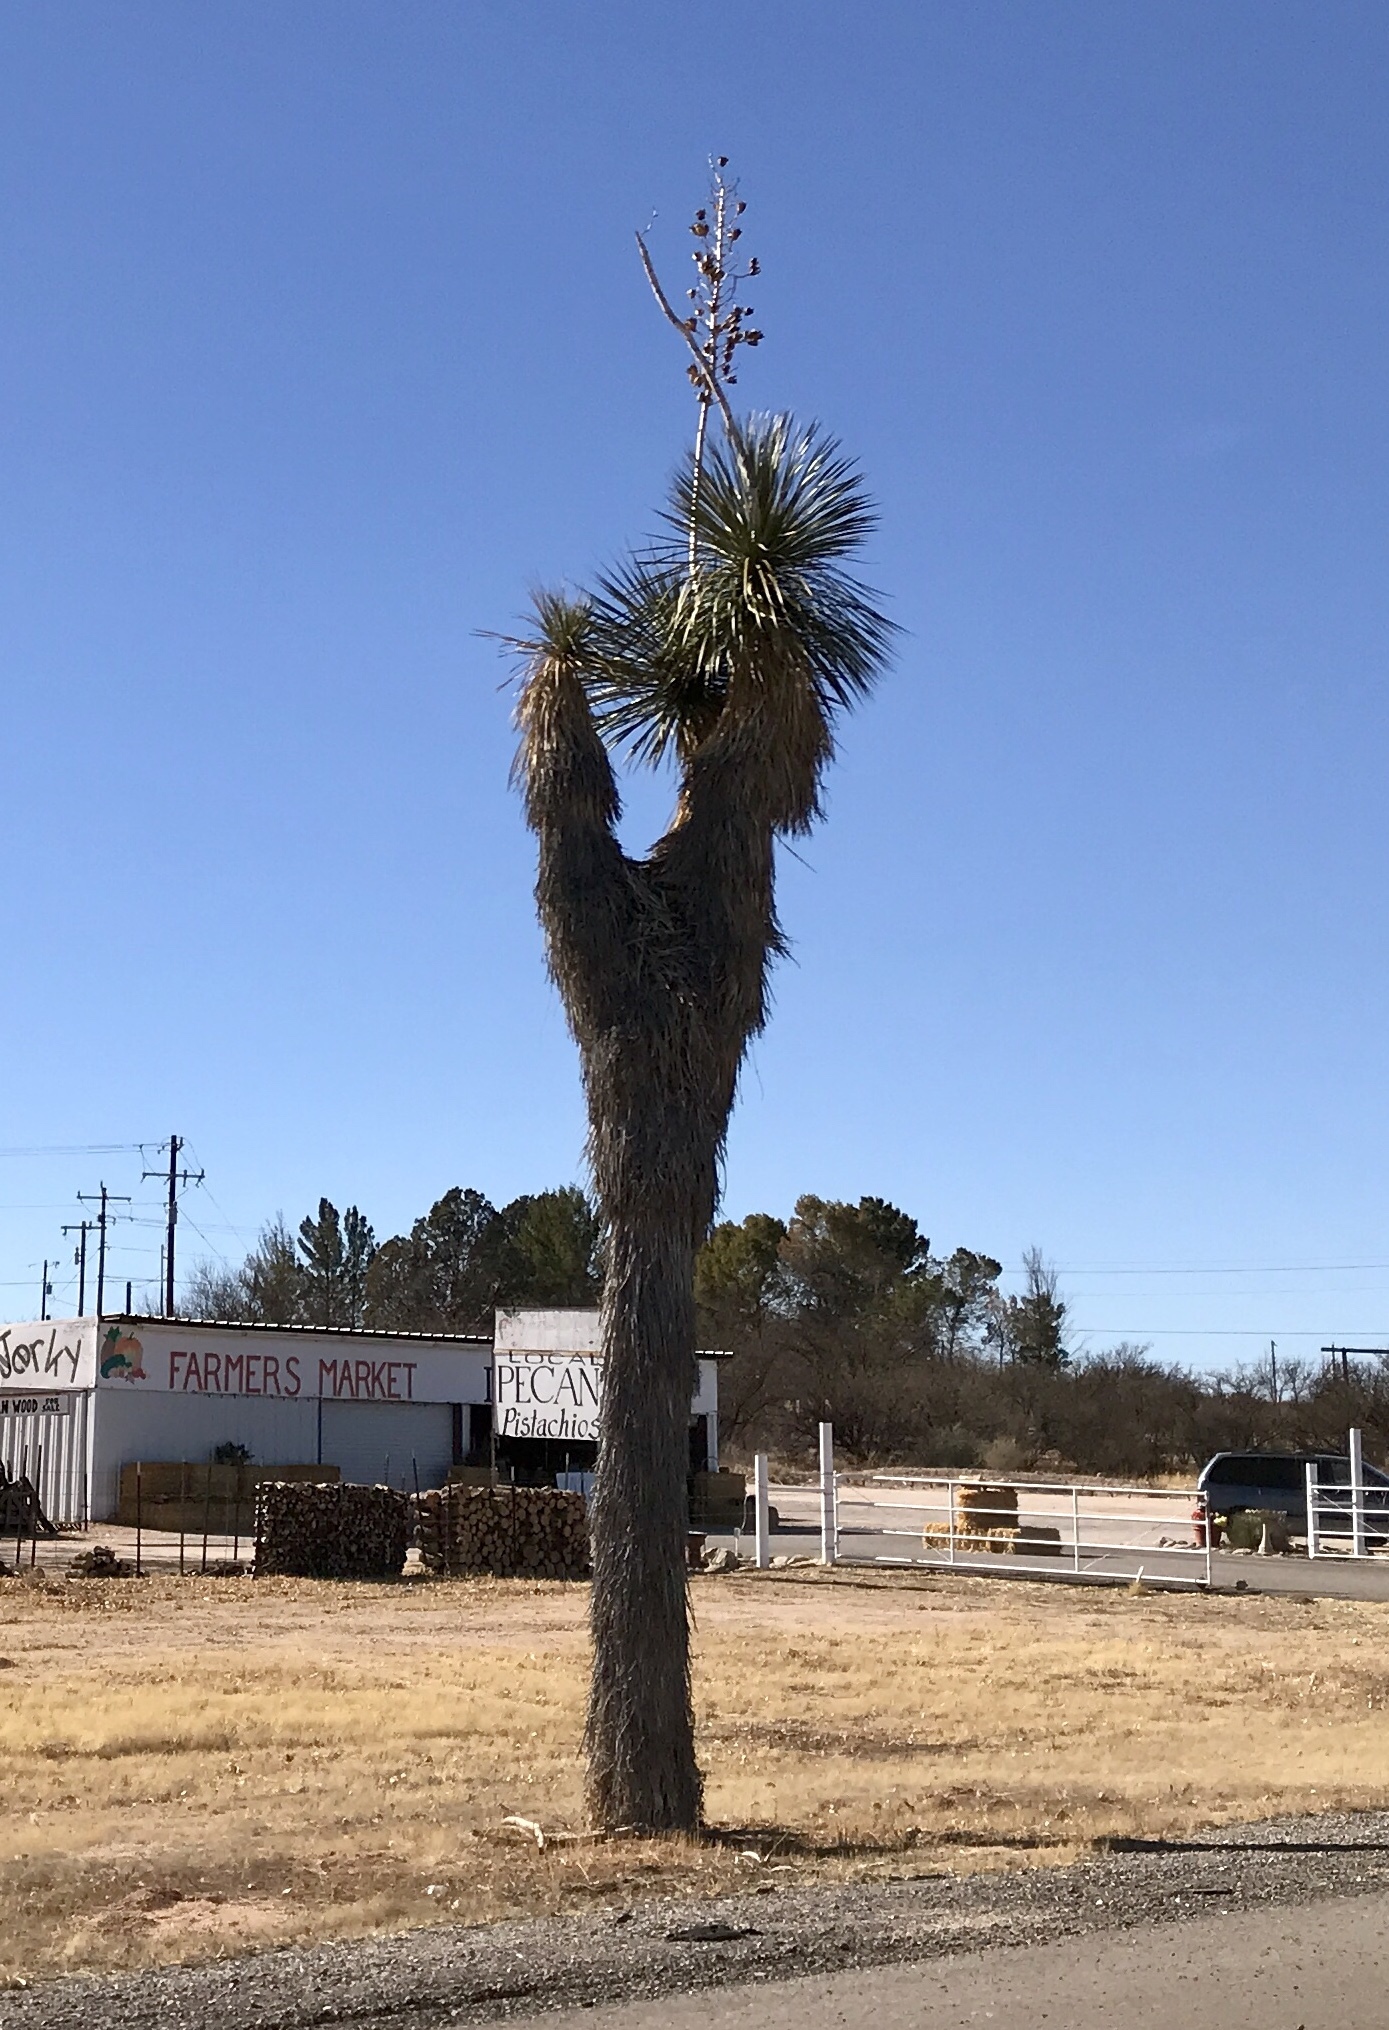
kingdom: Plantae
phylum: Tracheophyta
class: Liliopsida
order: Asparagales
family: Asparagaceae
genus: Yucca
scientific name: Yucca elata
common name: Palmella
